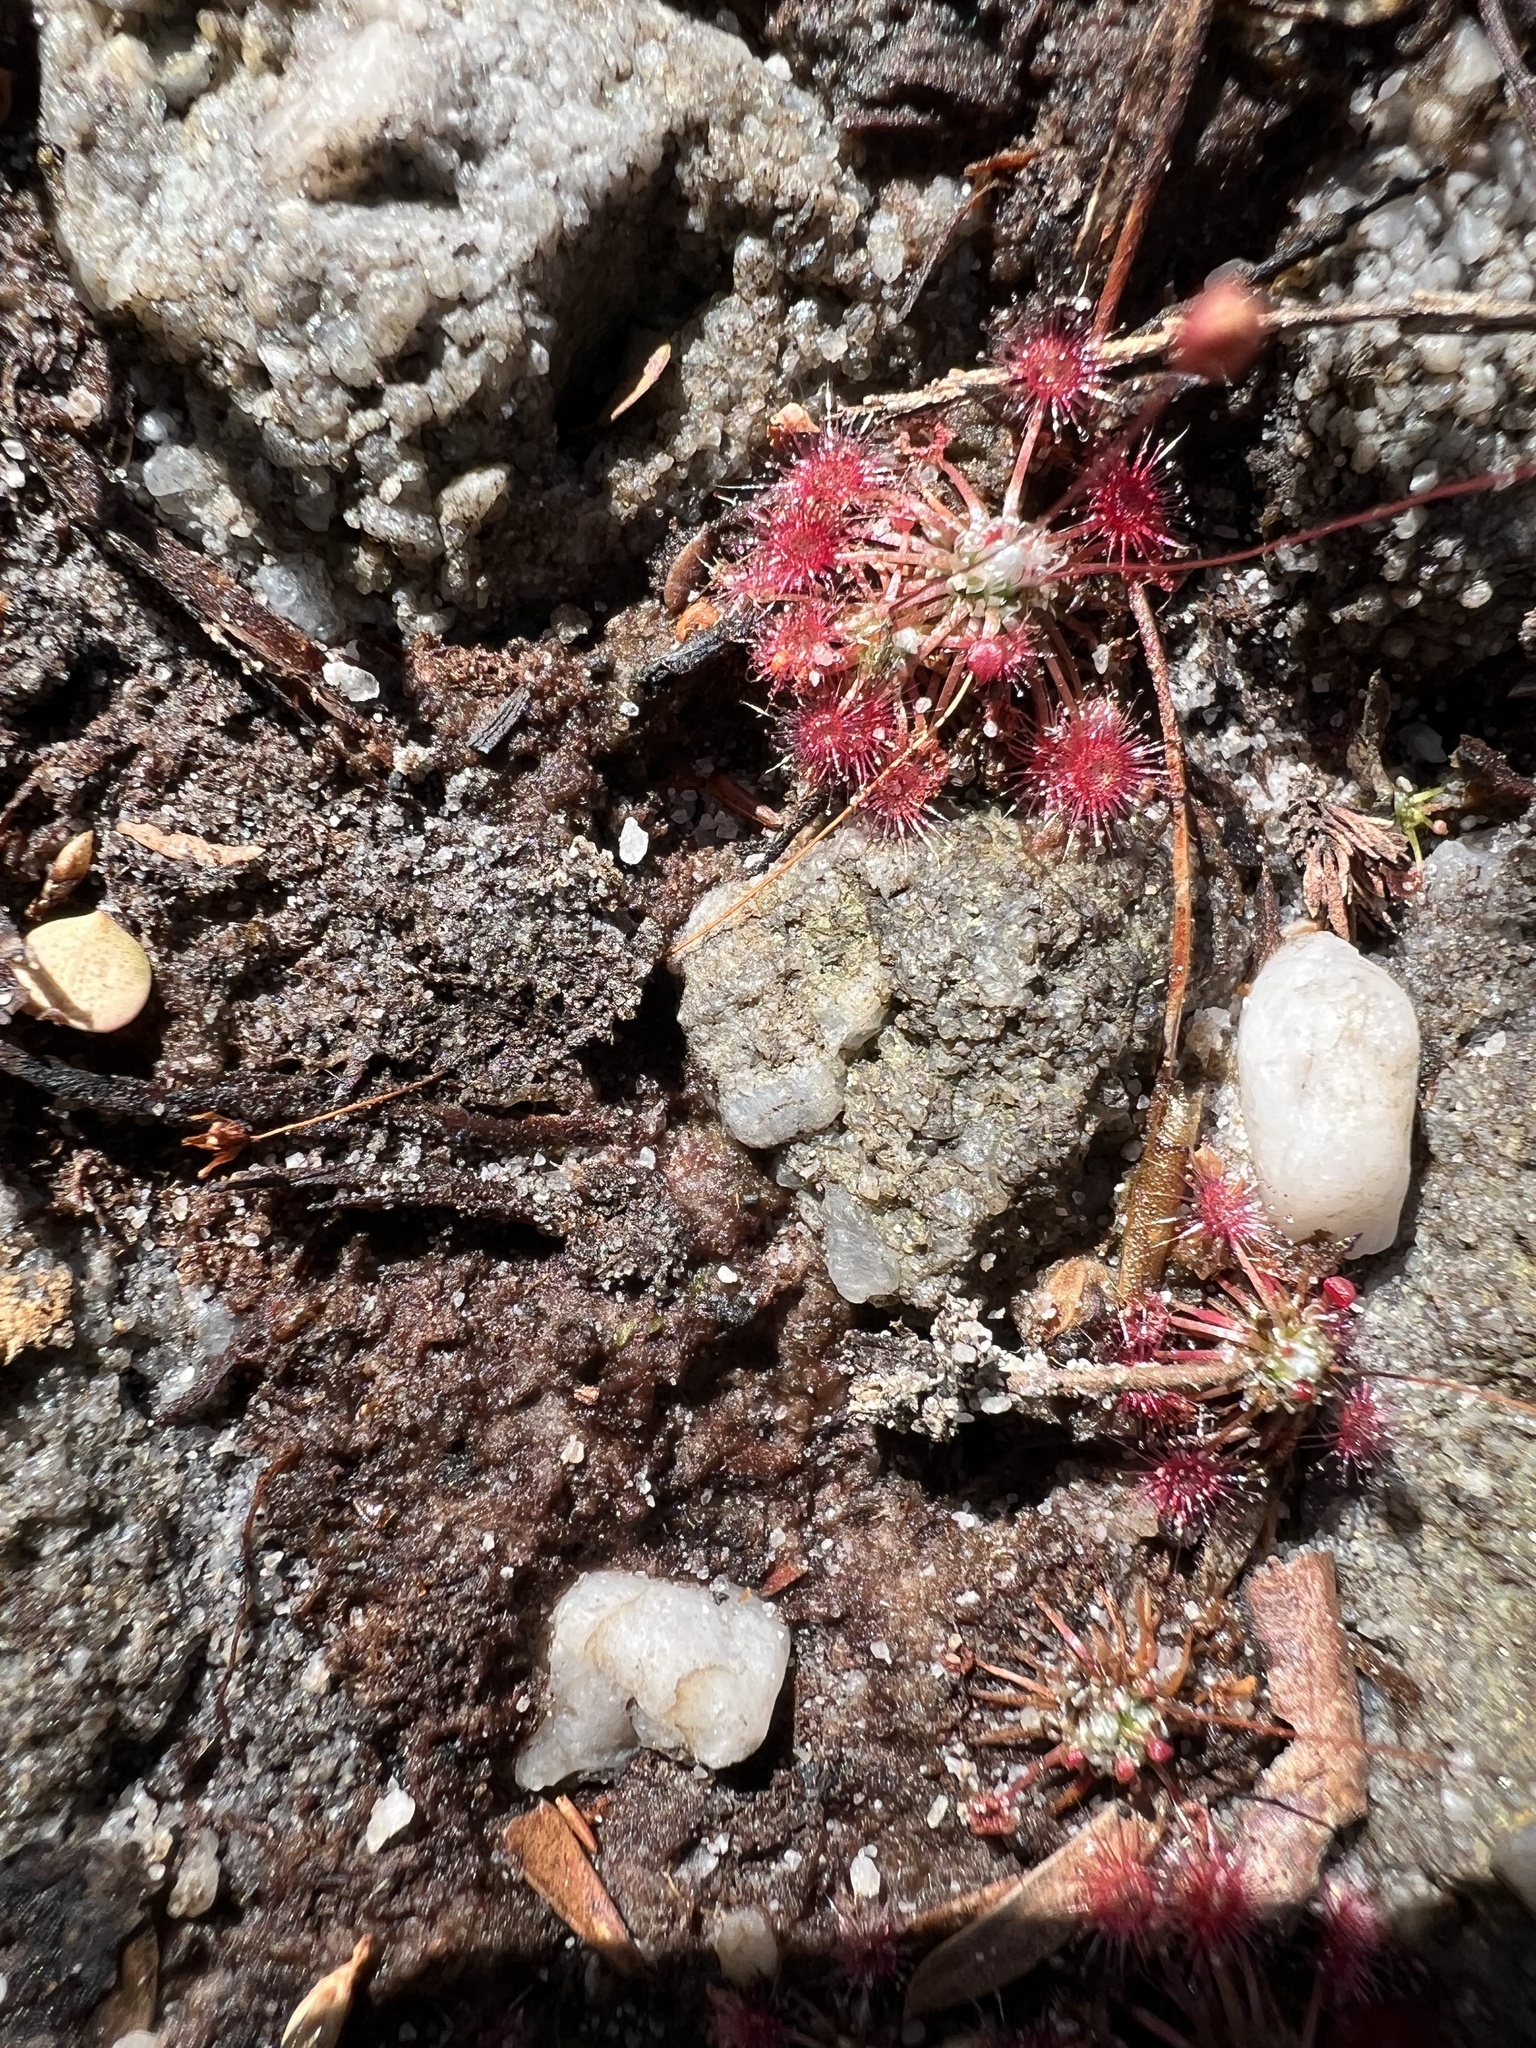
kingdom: Plantae
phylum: Tracheophyta
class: Magnoliopsida
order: Caryophyllales
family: Droseraceae
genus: Drosera
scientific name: Drosera pygmaea
